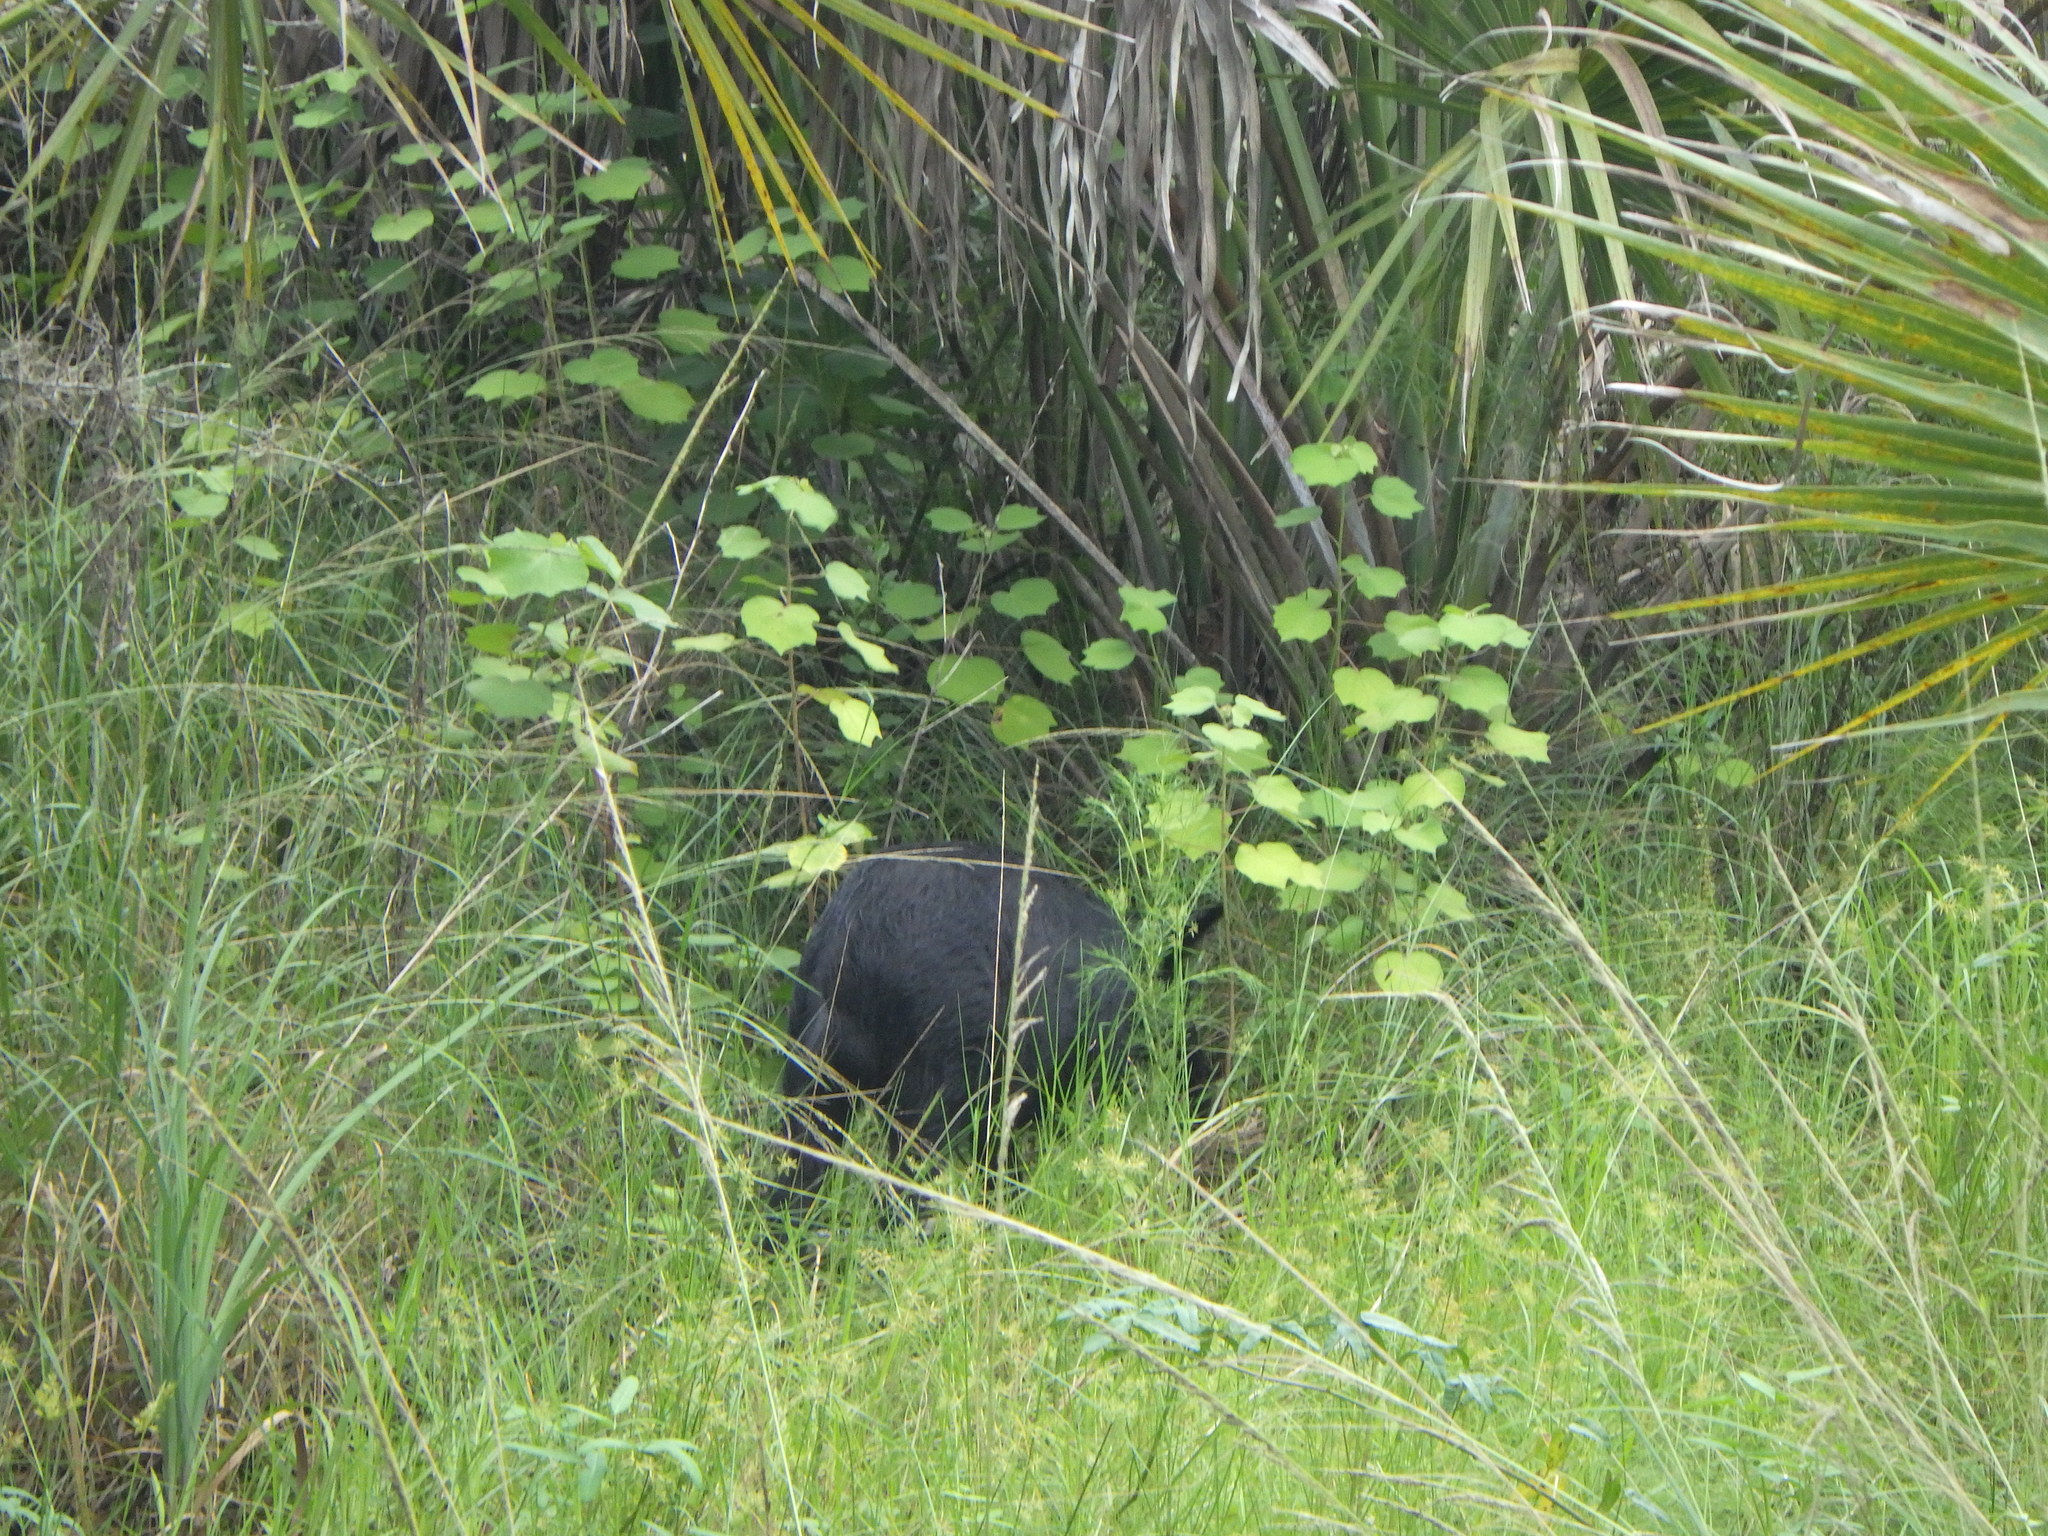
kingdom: Animalia
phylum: Chordata
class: Mammalia
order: Artiodactyla
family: Suidae
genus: Sus
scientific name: Sus scrofa
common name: Wild boar
